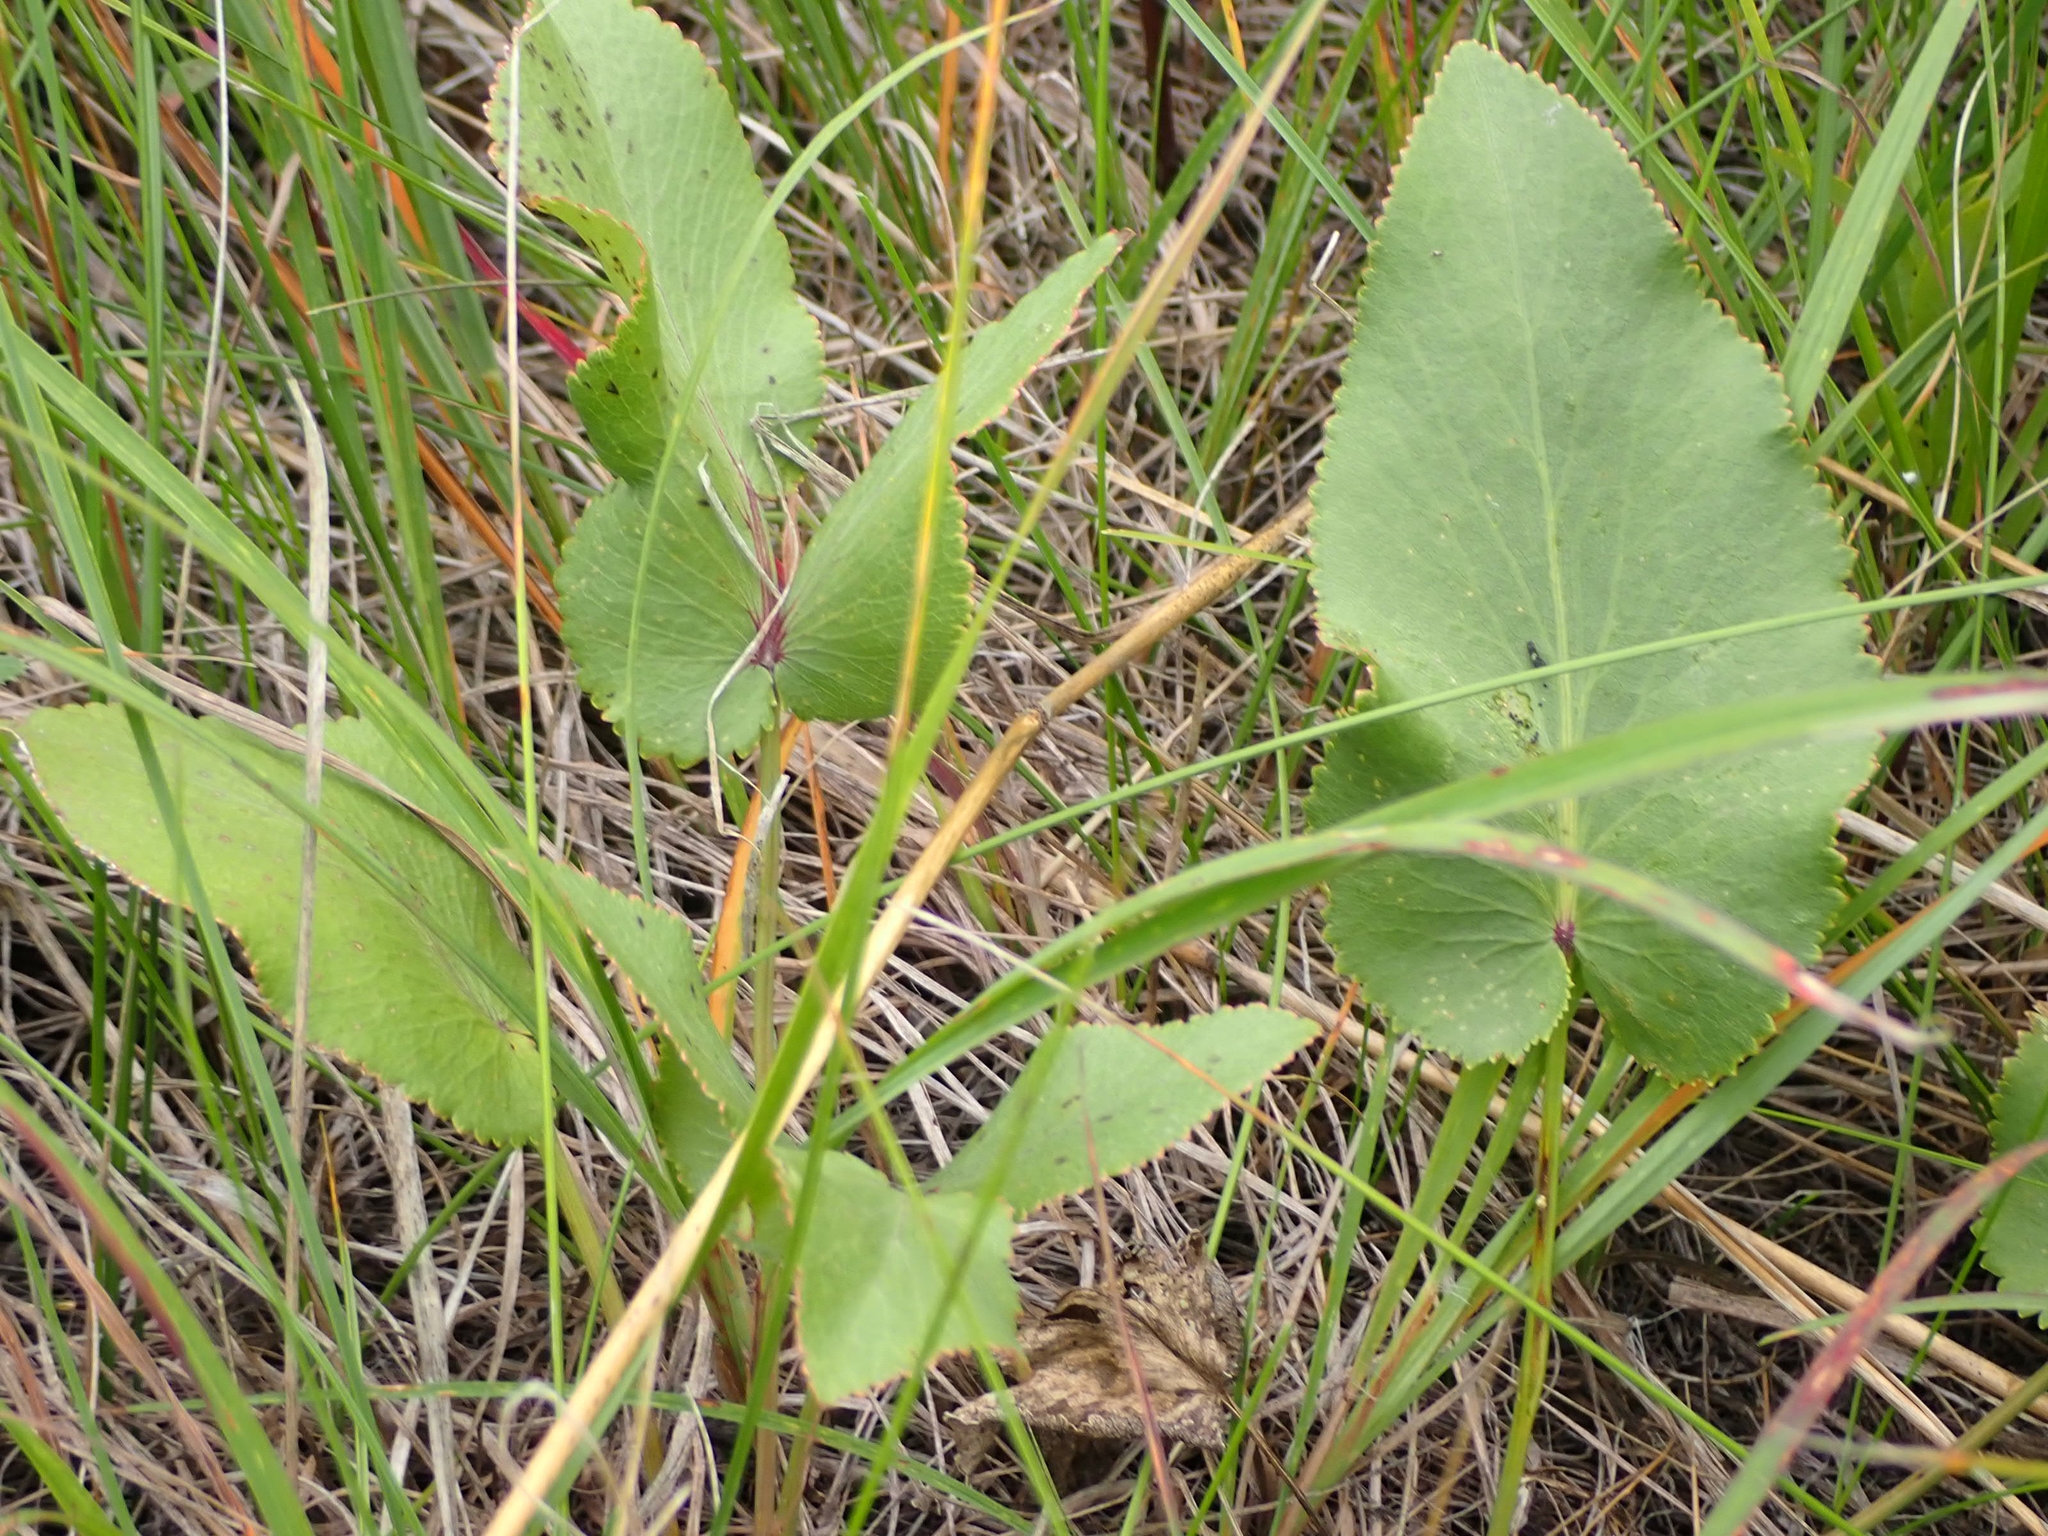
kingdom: Plantae
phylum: Tracheophyta
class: Magnoliopsida
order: Apiales
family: Apiaceae
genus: Zizia
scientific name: Zizia aptera
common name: Heart-leaved alexanders
